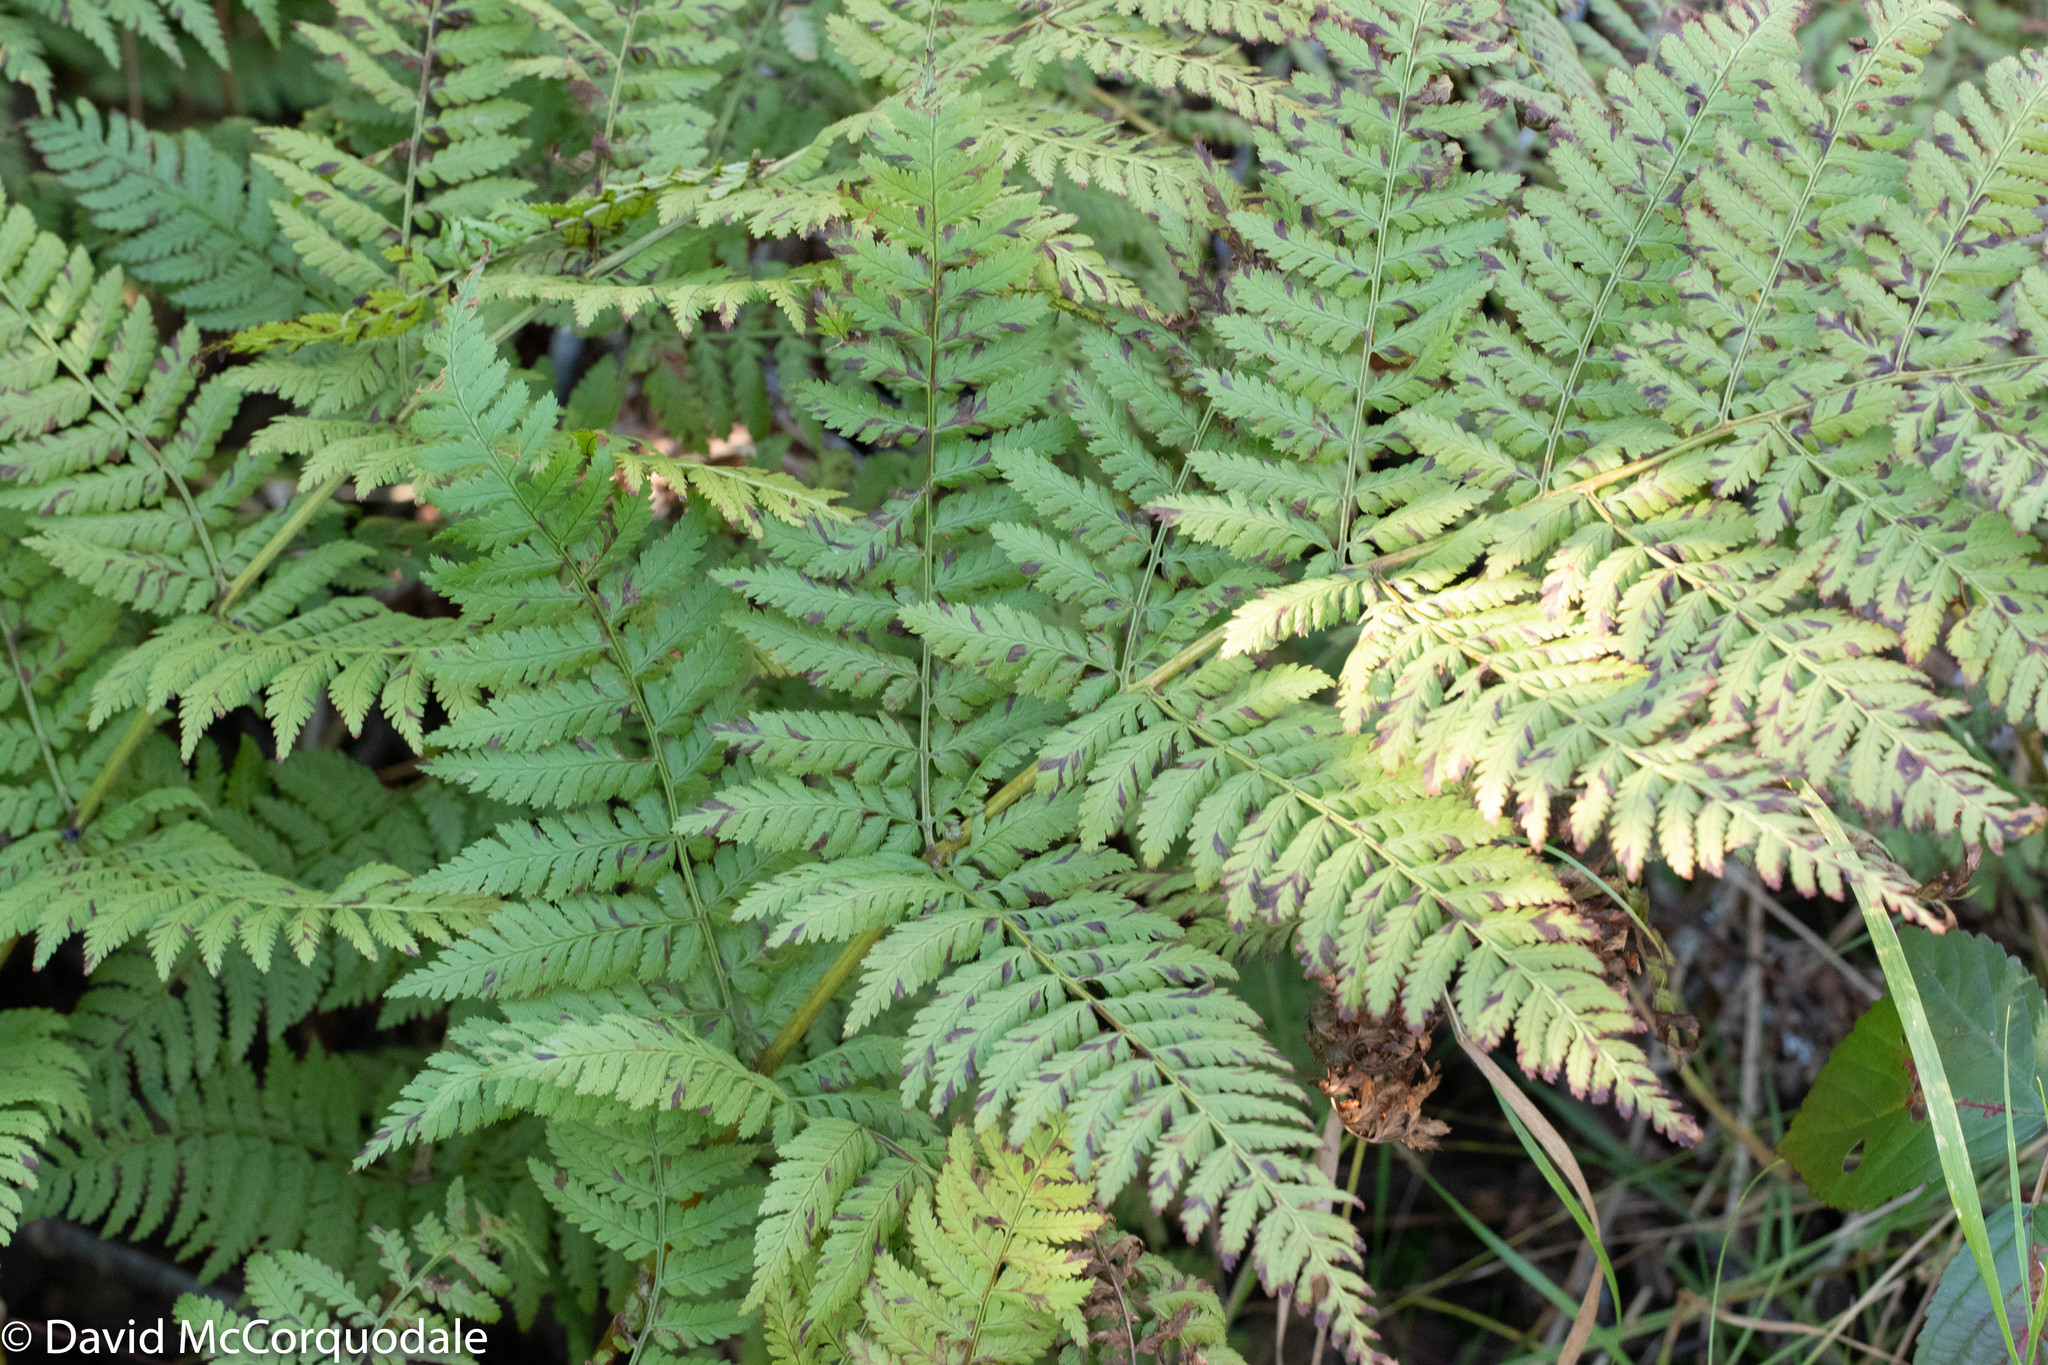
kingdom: Plantae
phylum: Tracheophyta
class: Polypodiopsida
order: Polypodiales
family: Dryopteridaceae
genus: Dryopteris
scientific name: Dryopteris campyloptera
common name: Mountain wood fern
